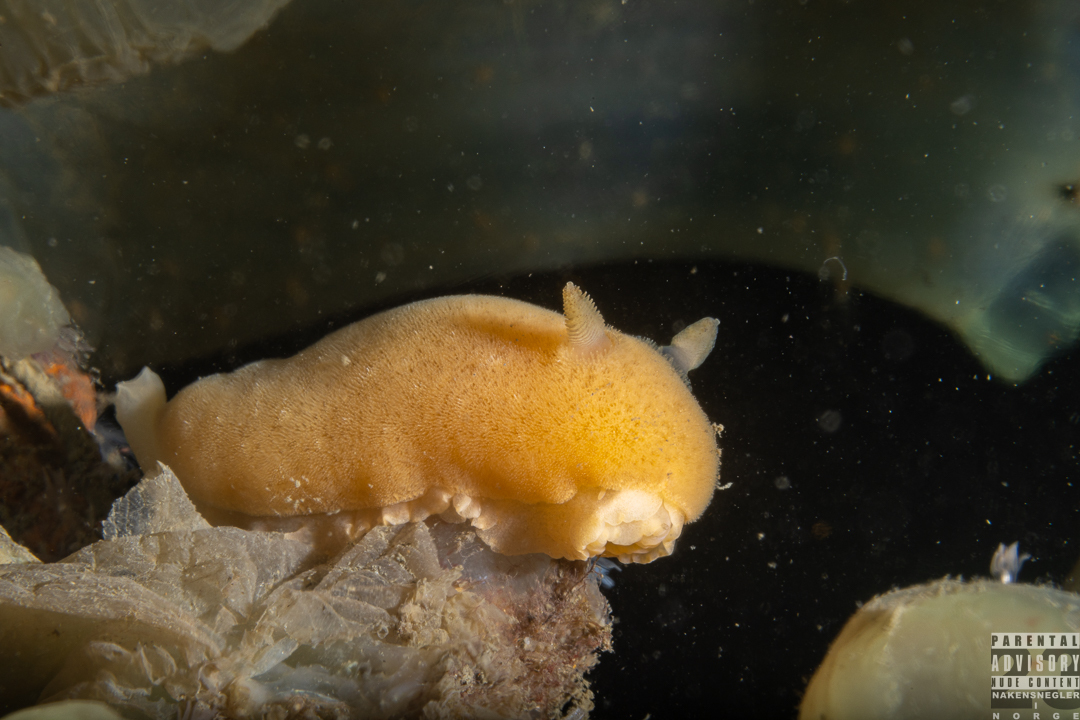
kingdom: Animalia
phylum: Mollusca
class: Gastropoda
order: Nudibranchia
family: Discodorididae
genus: Jorunna
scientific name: Jorunna tomentosa
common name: Grey sea slug
